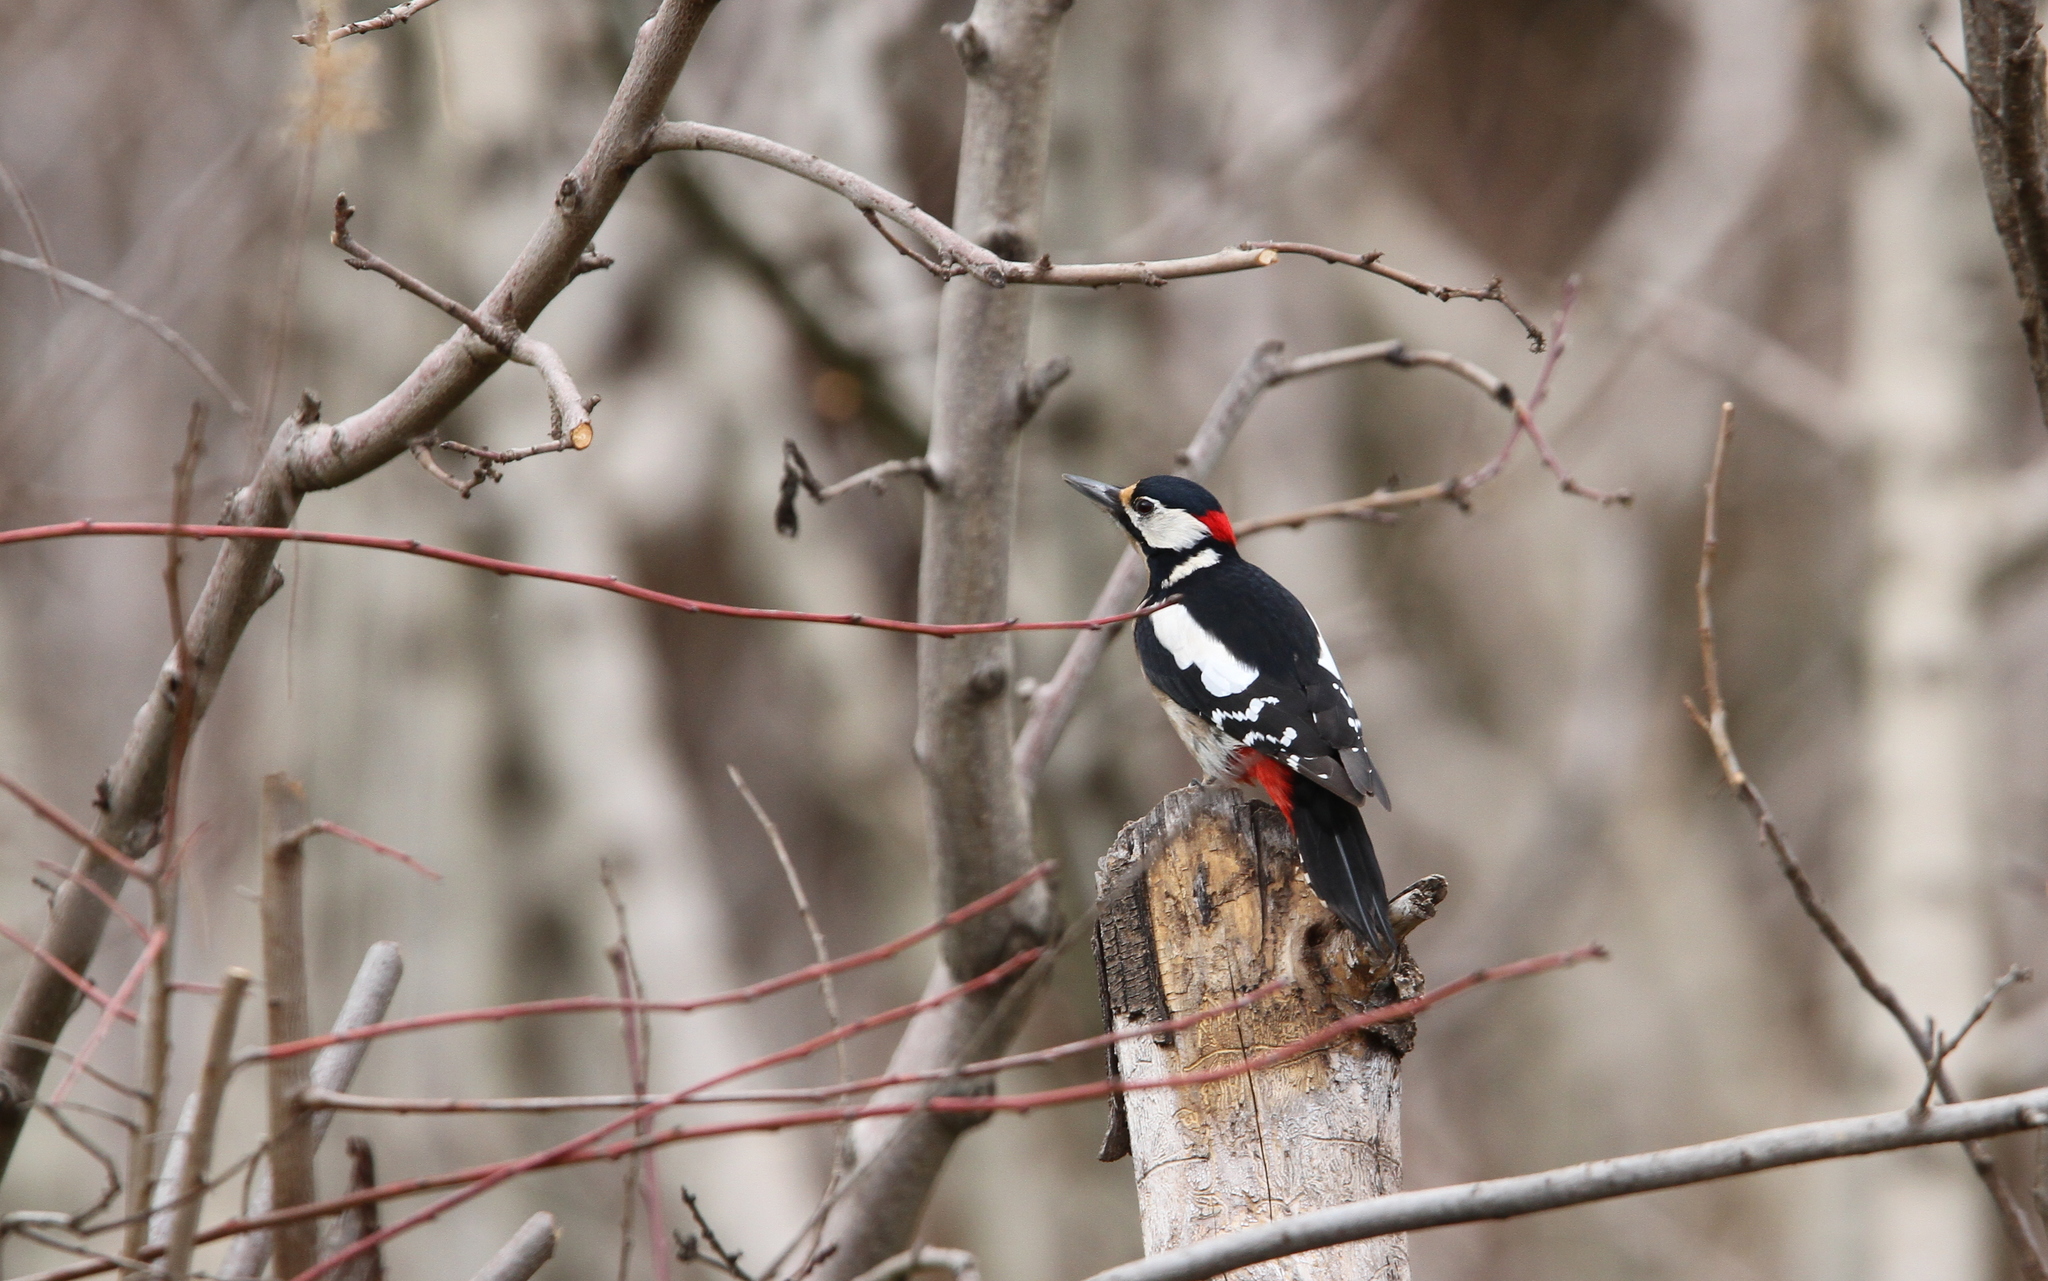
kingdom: Animalia
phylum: Chordata
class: Aves
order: Piciformes
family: Picidae
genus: Dendrocopos
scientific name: Dendrocopos major
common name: Great spotted woodpecker
